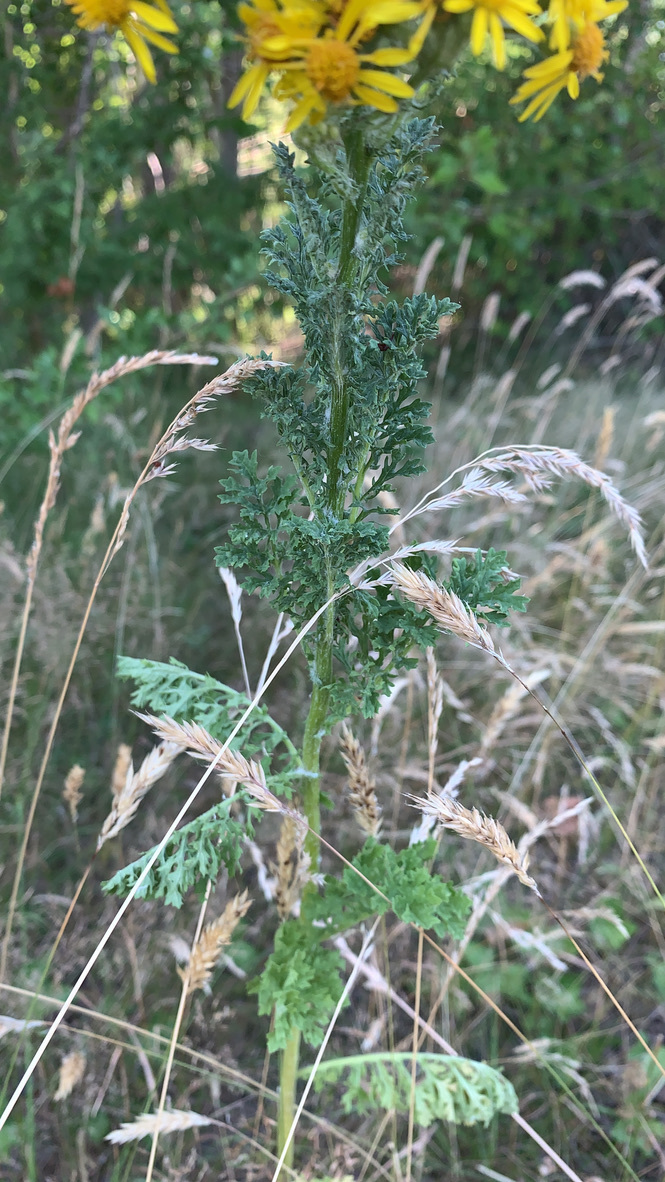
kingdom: Plantae
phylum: Tracheophyta
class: Magnoliopsida
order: Asterales
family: Asteraceae
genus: Jacobaea
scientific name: Jacobaea vulgaris
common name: Stinking willie
